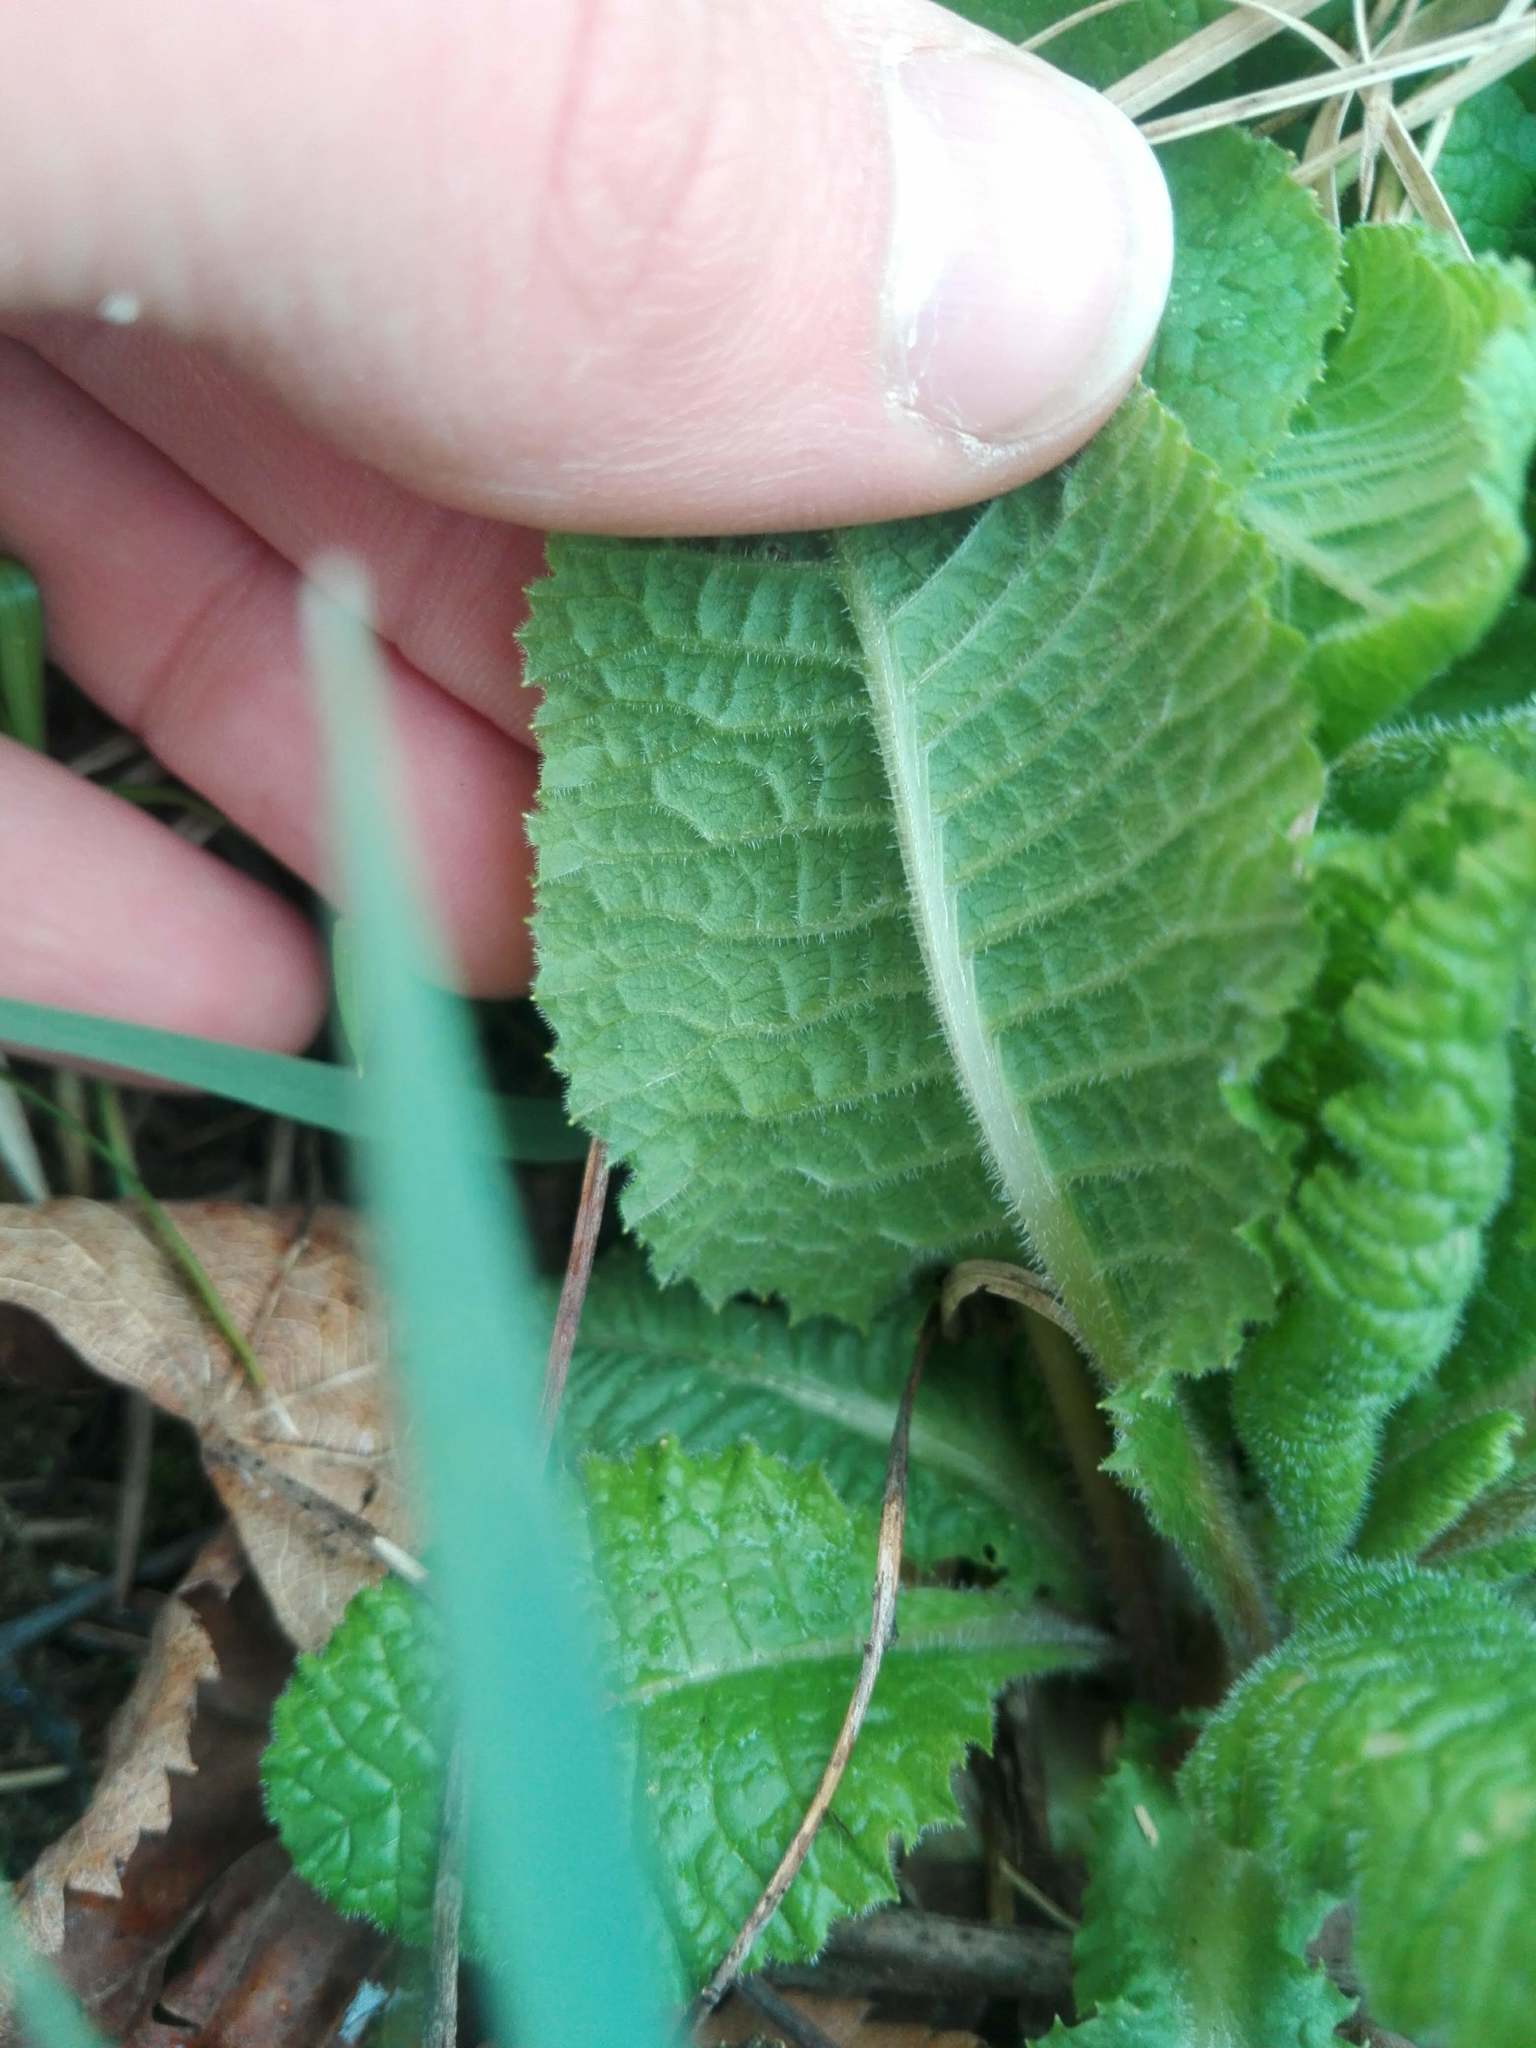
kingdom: Plantae
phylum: Tracheophyta
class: Magnoliopsida
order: Ericales
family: Primulaceae
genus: Primula
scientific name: Primula elatior
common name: Oxlip
